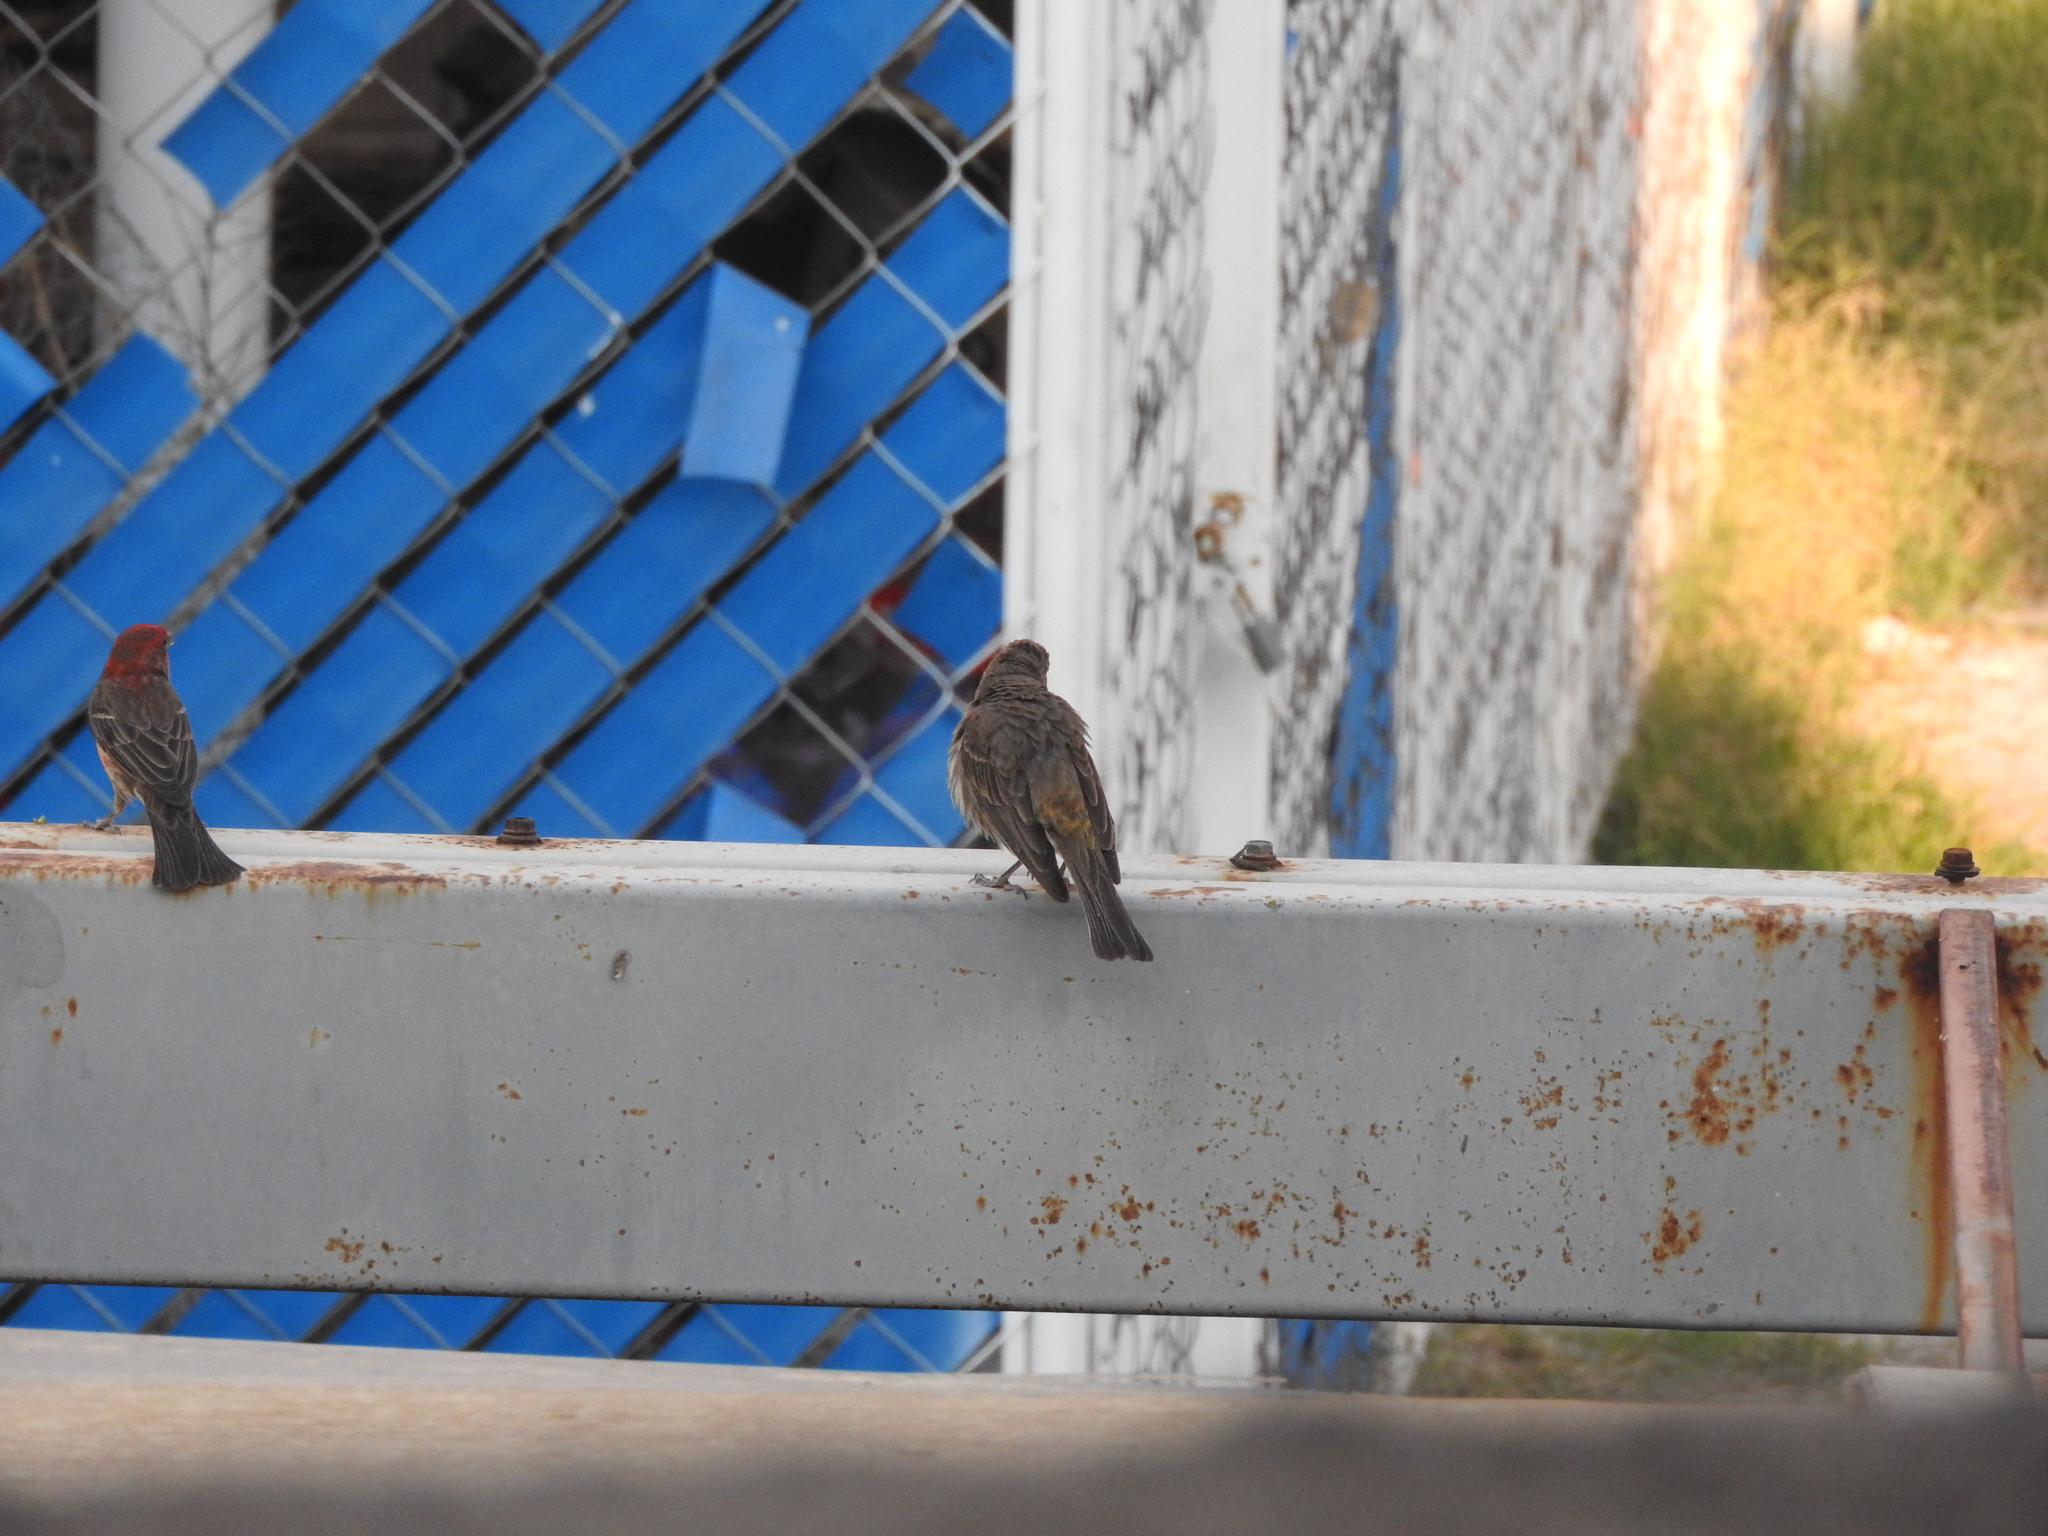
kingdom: Animalia
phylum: Chordata
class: Aves
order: Passeriformes
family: Tyrannidae
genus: Tyrannus
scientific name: Tyrannus vociferans
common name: Cassin's kingbird
